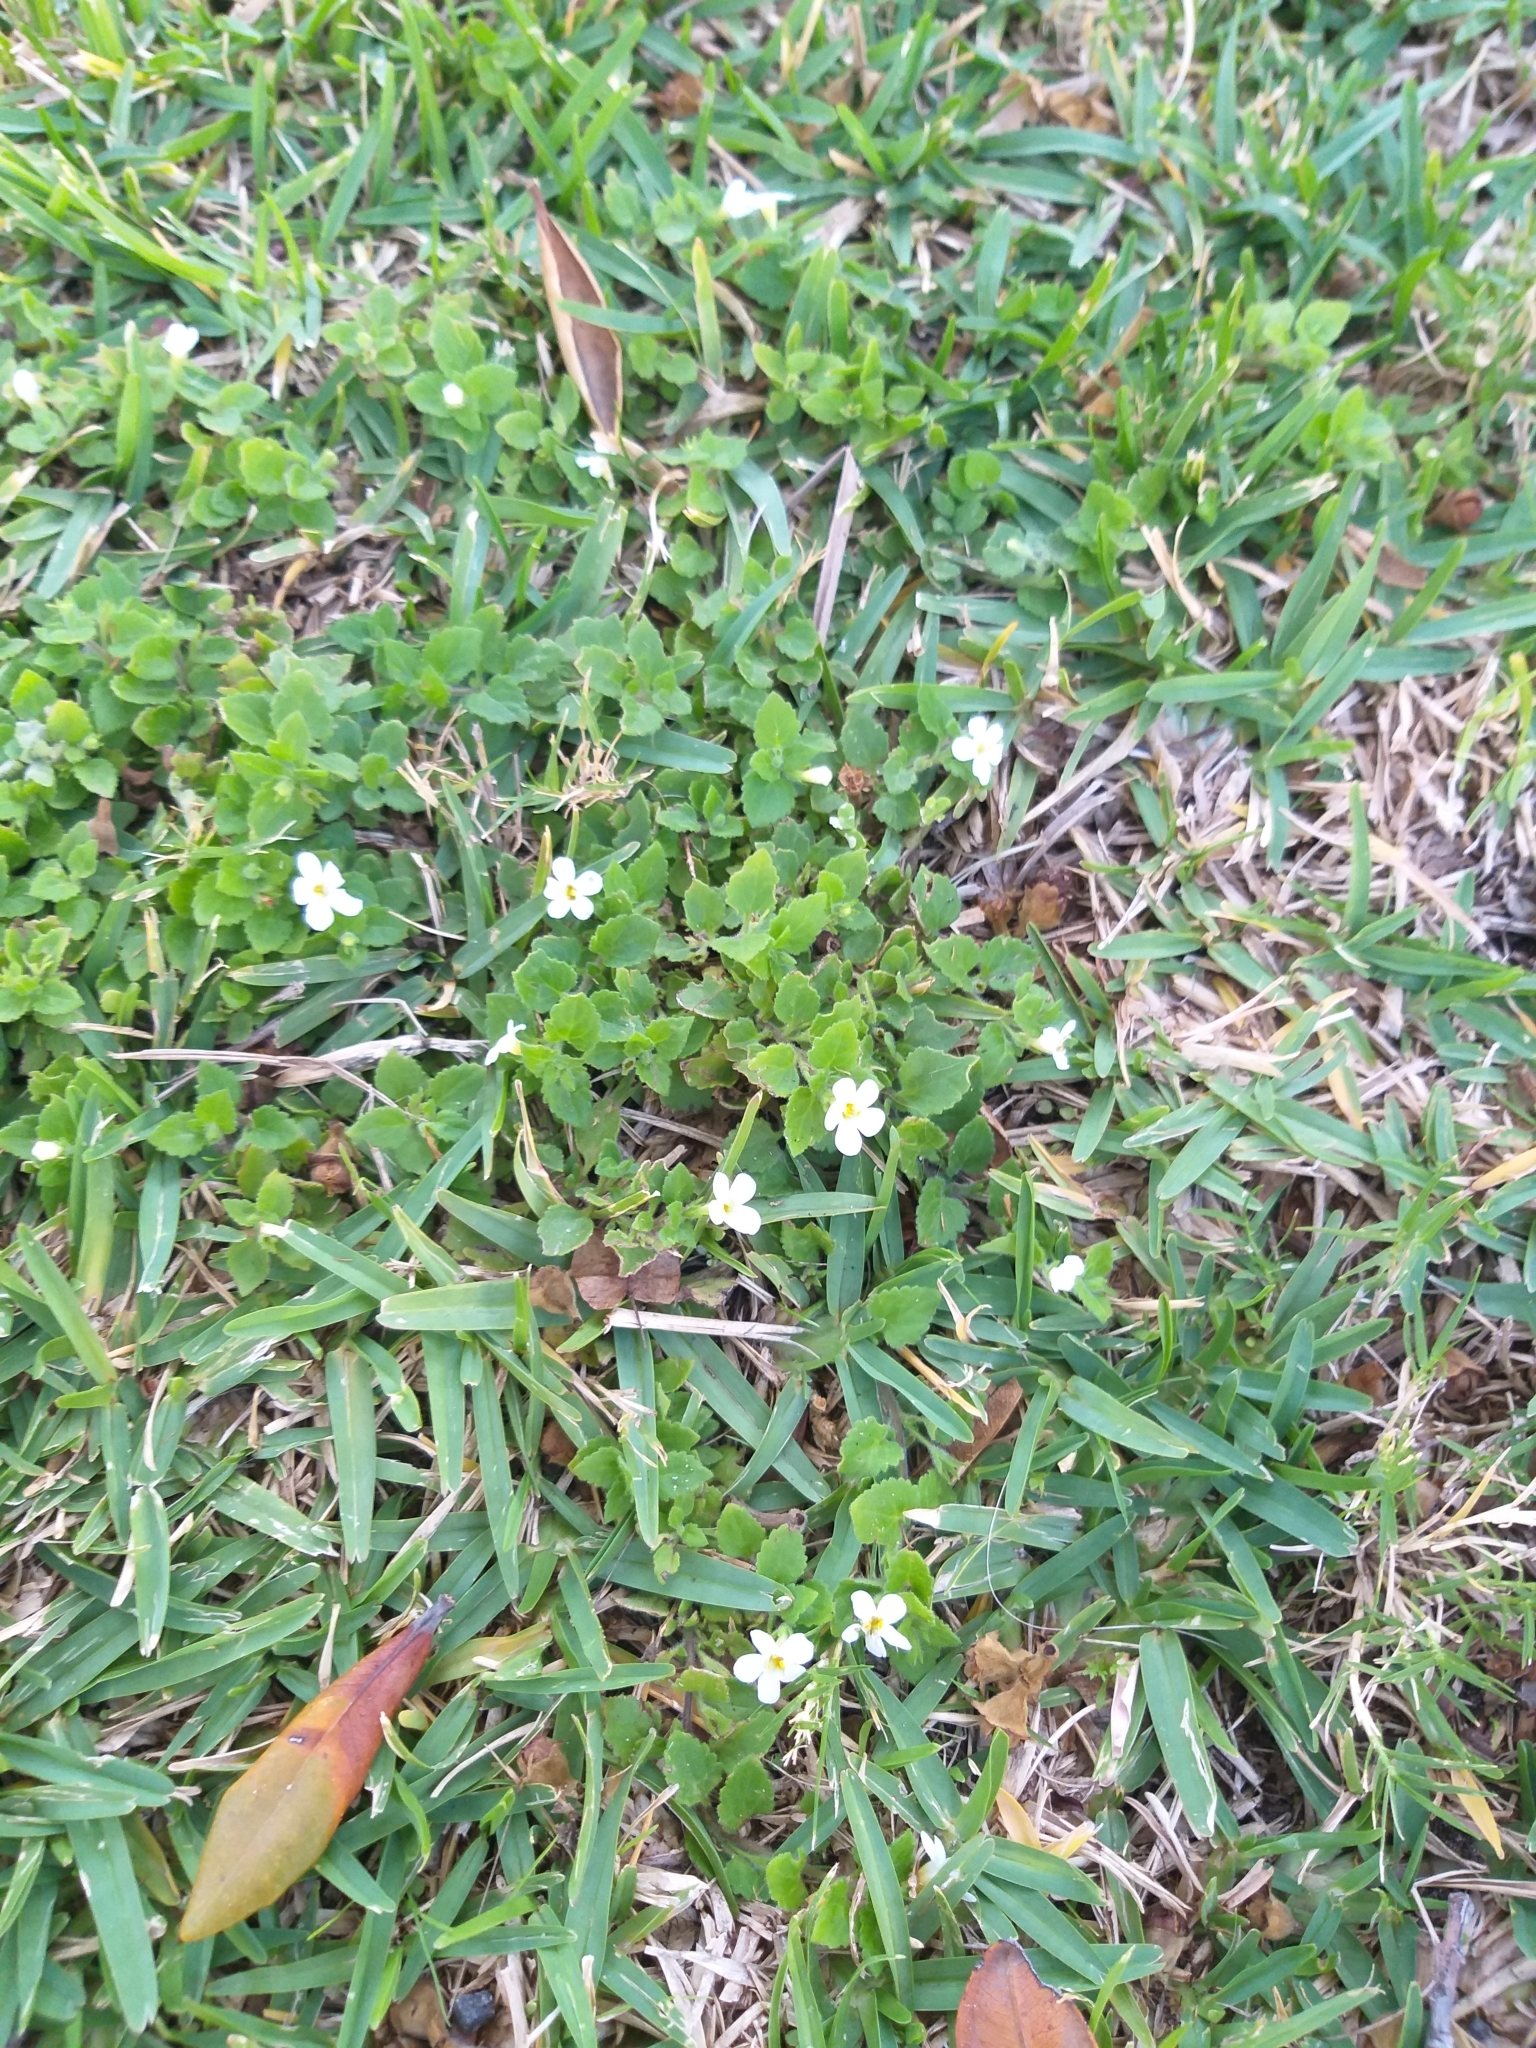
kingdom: Plantae
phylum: Tracheophyta
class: Magnoliopsida
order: Lamiales
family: Scrophulariaceae
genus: Chaenostoma
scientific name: Chaenostoma hispidum
